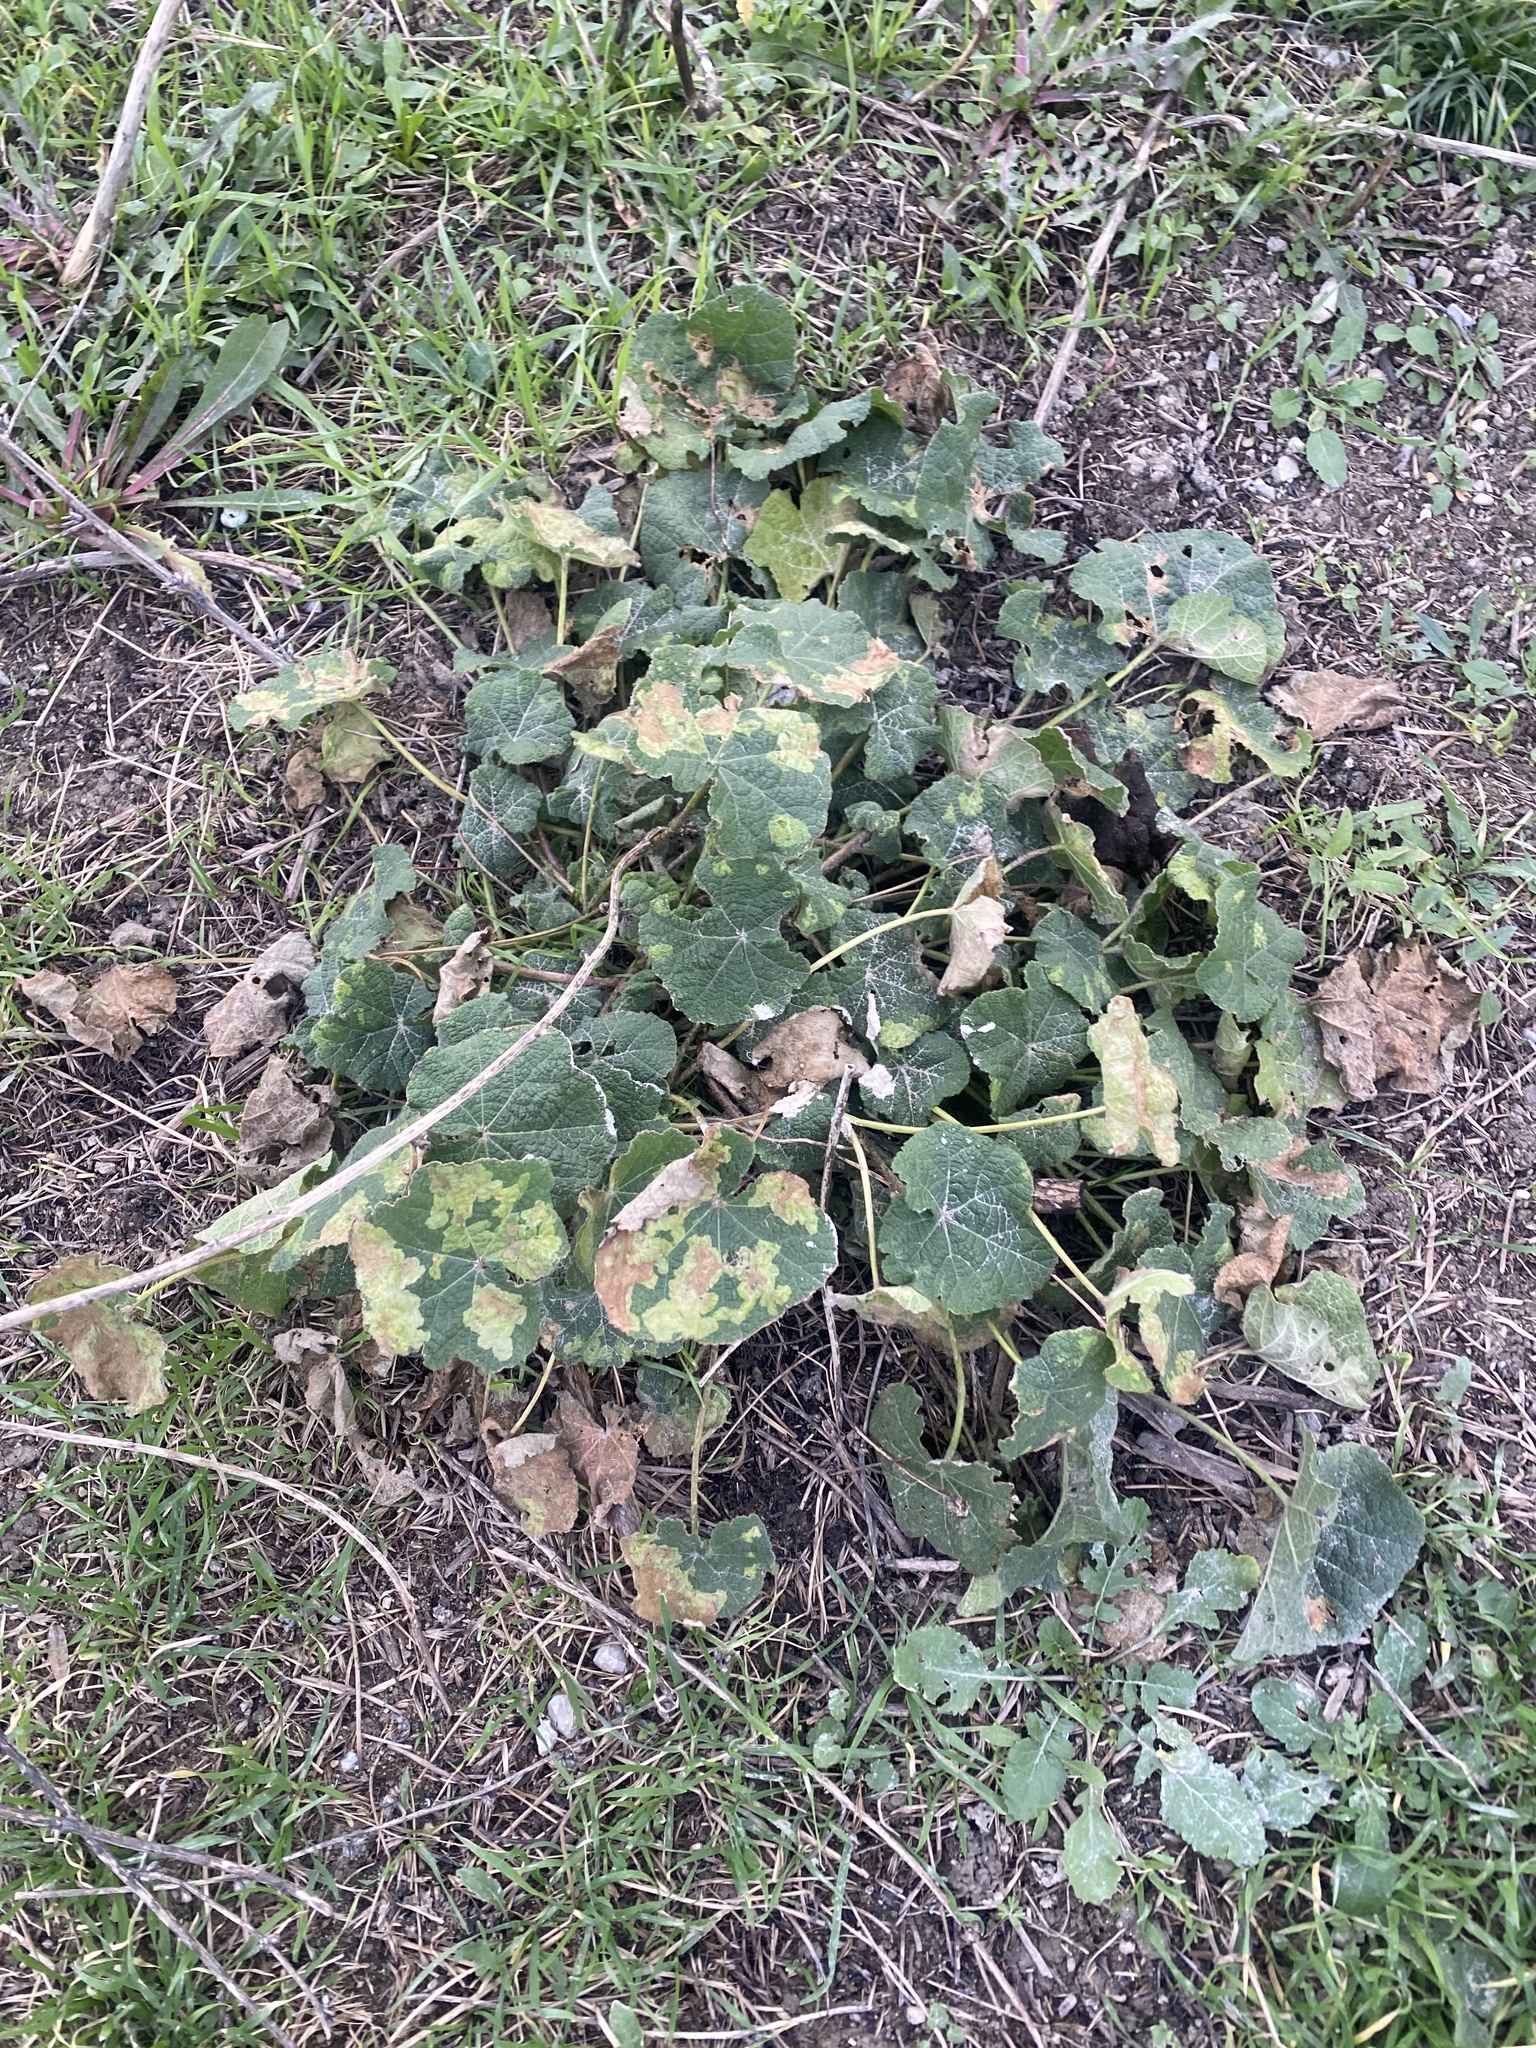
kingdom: Plantae
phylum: Tracheophyta
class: Magnoliopsida
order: Malvales
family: Malvaceae
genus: Alcea
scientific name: Alcea rugosa
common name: Russian hollyhock
